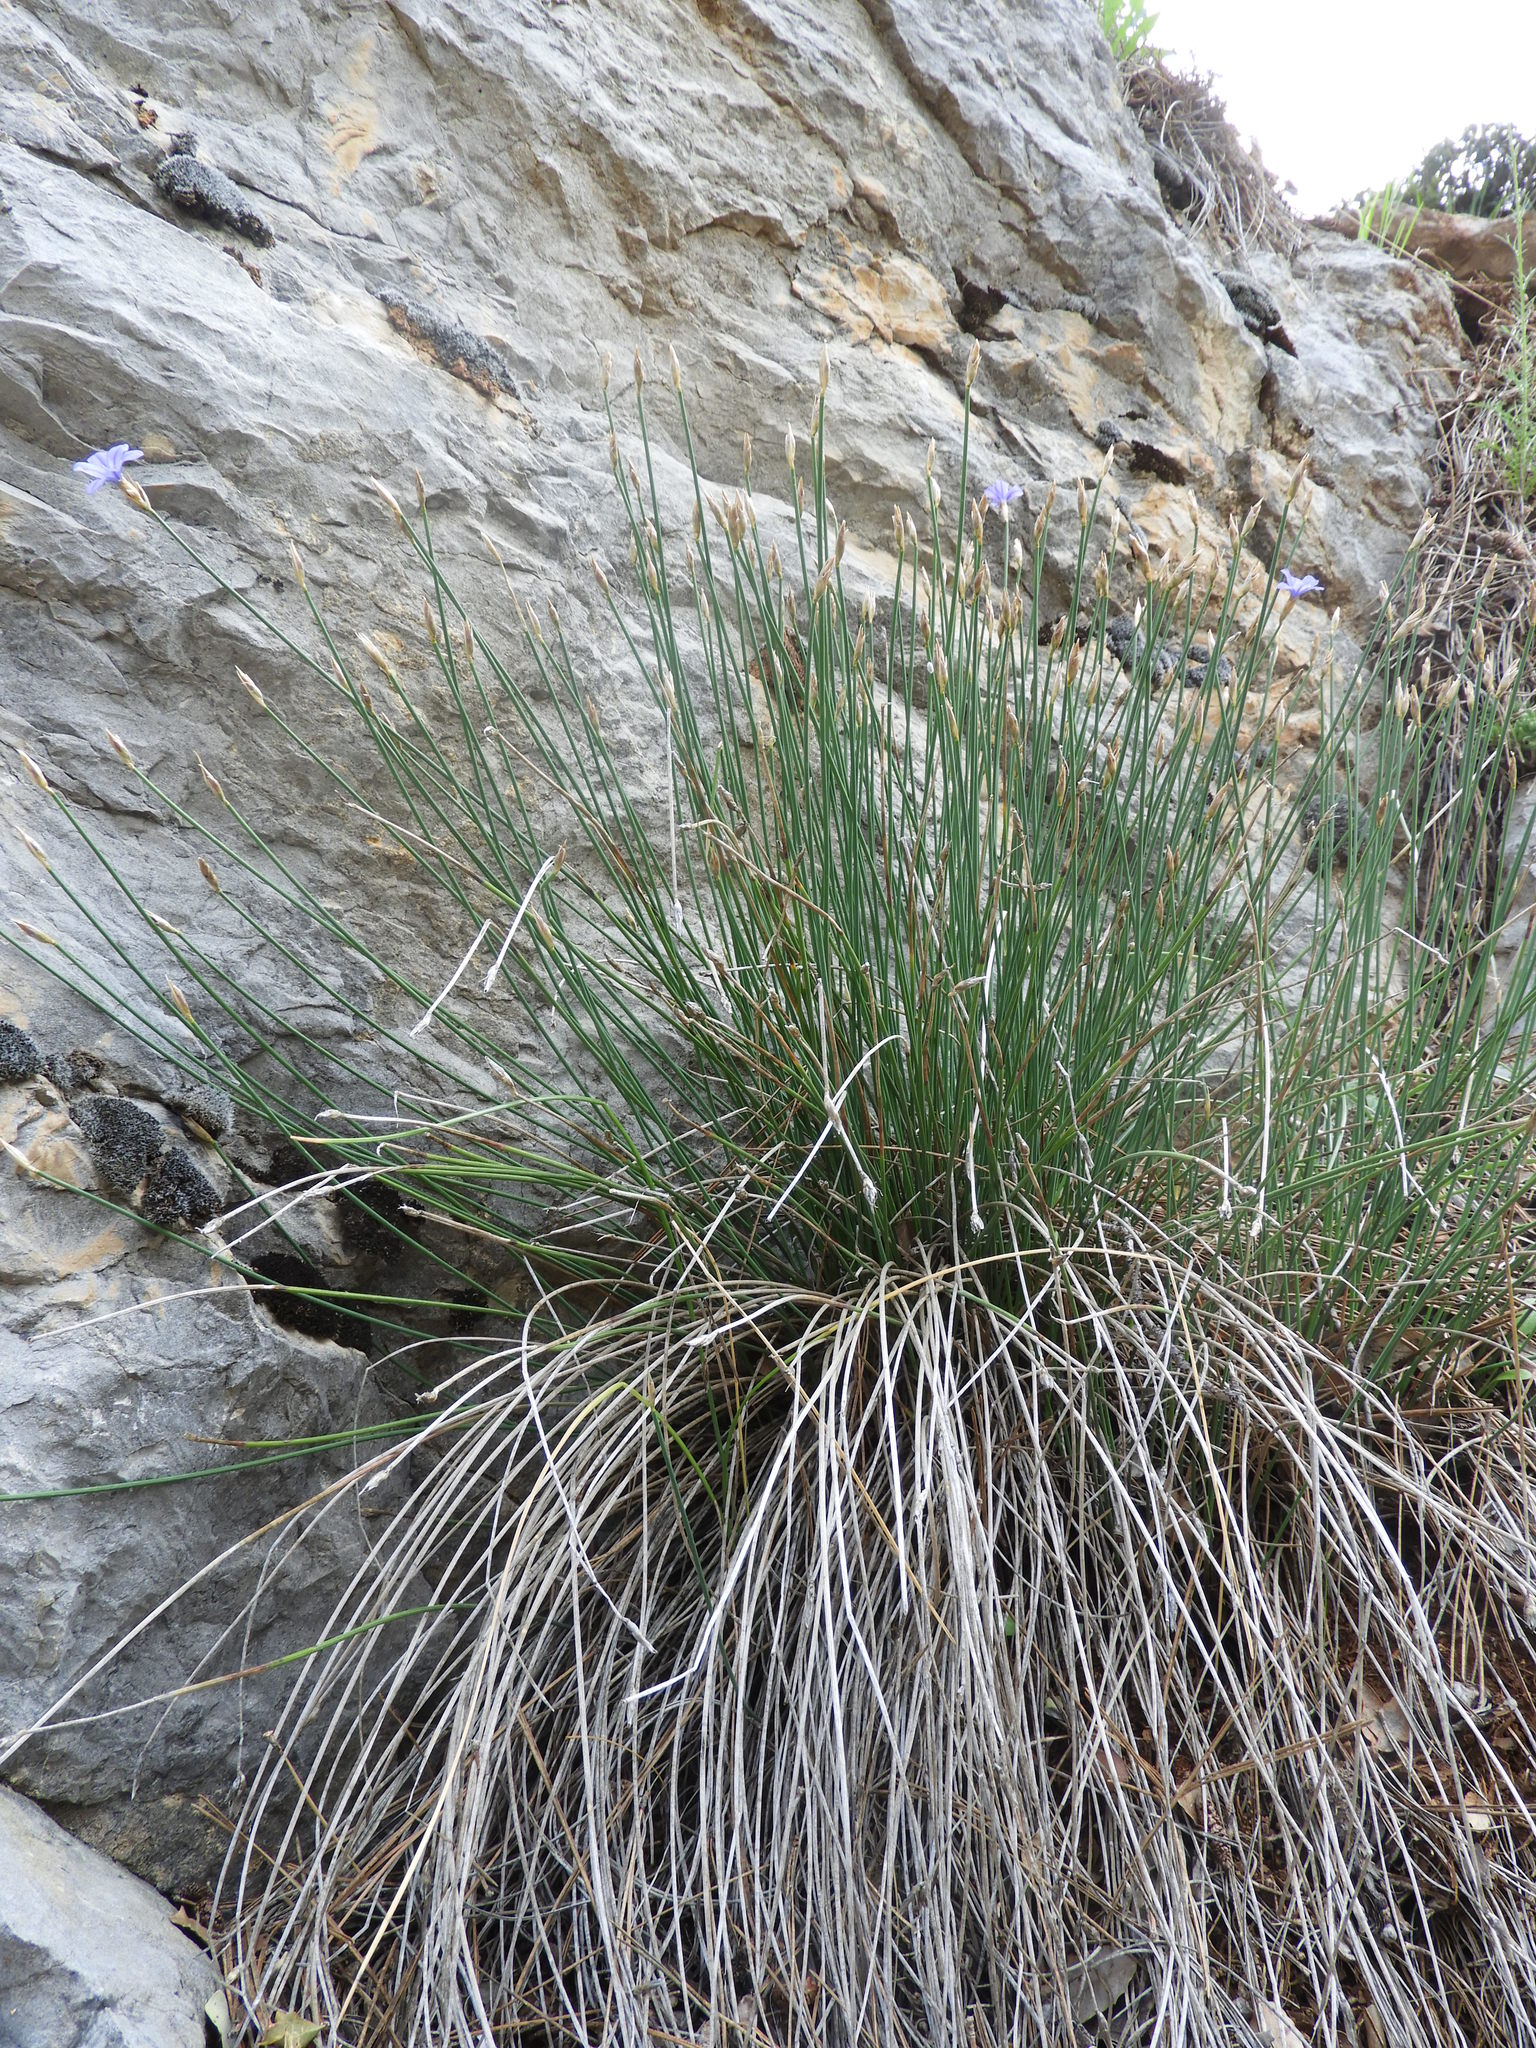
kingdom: Plantae
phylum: Tracheophyta
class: Liliopsida
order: Asparagales
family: Asparagaceae
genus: Aphyllanthes
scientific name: Aphyllanthes monspeliensis
